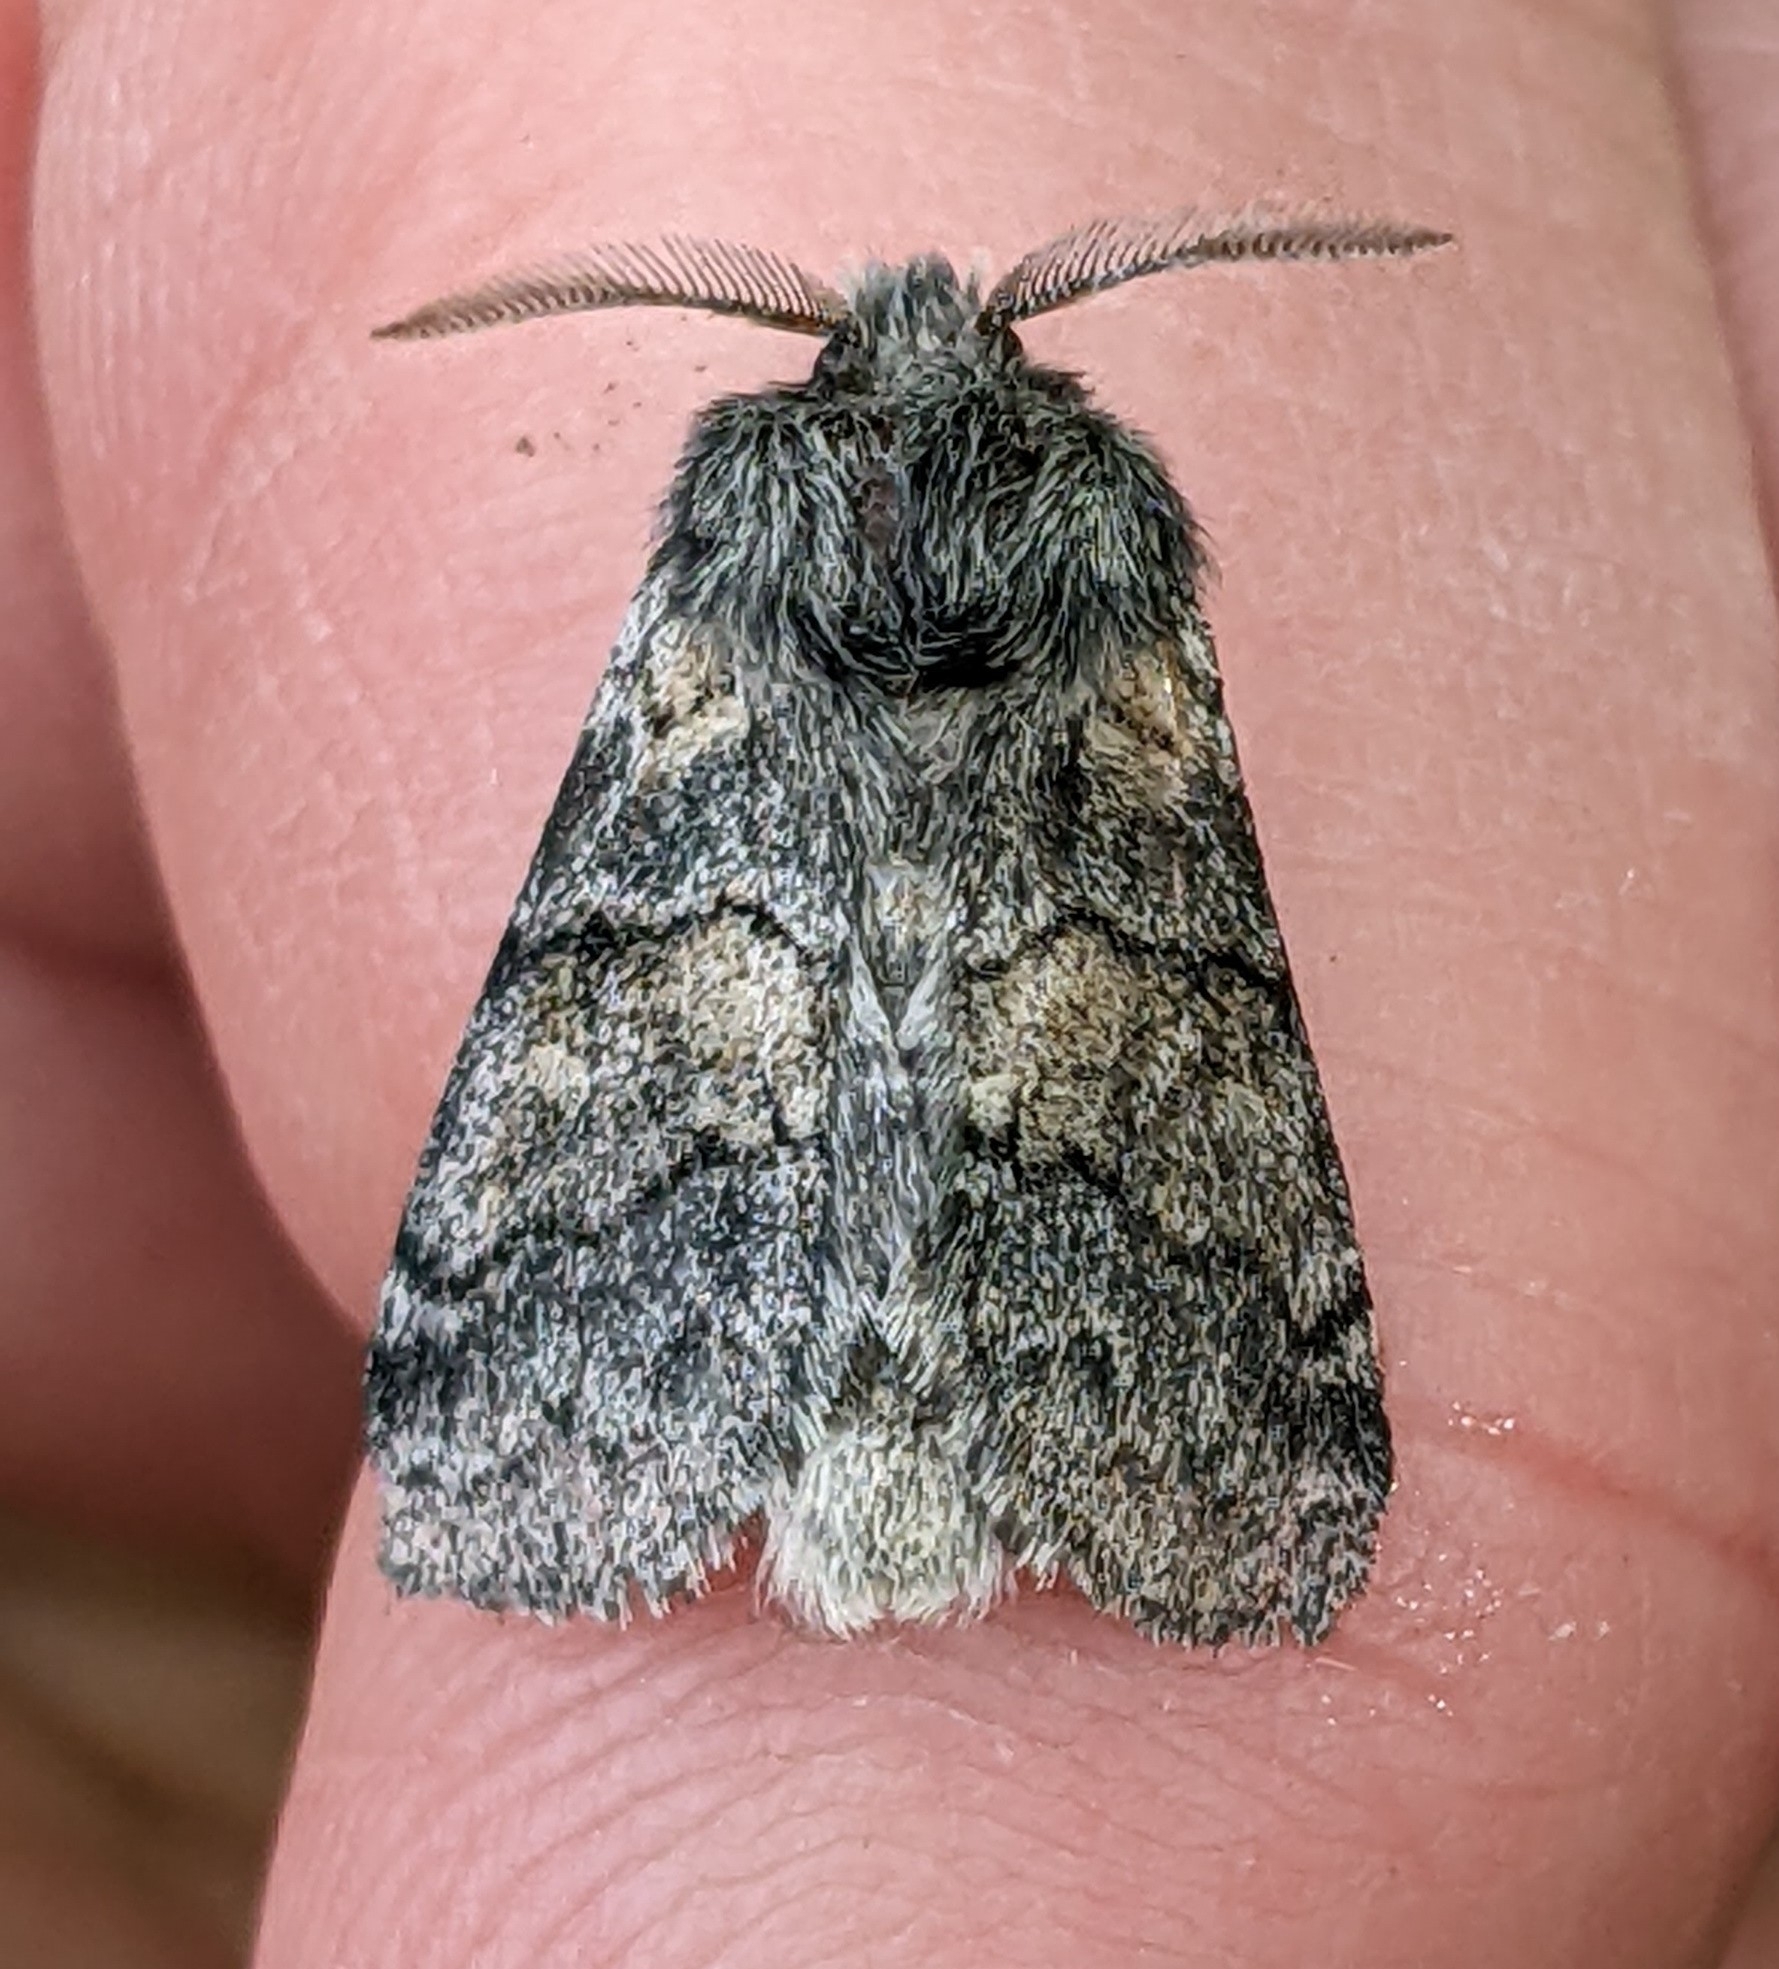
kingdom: Animalia
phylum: Arthropoda
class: Insecta
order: Lepidoptera
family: Notodontidae
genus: Gluphisia
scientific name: Gluphisia septentrionis
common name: Common gluphisia
